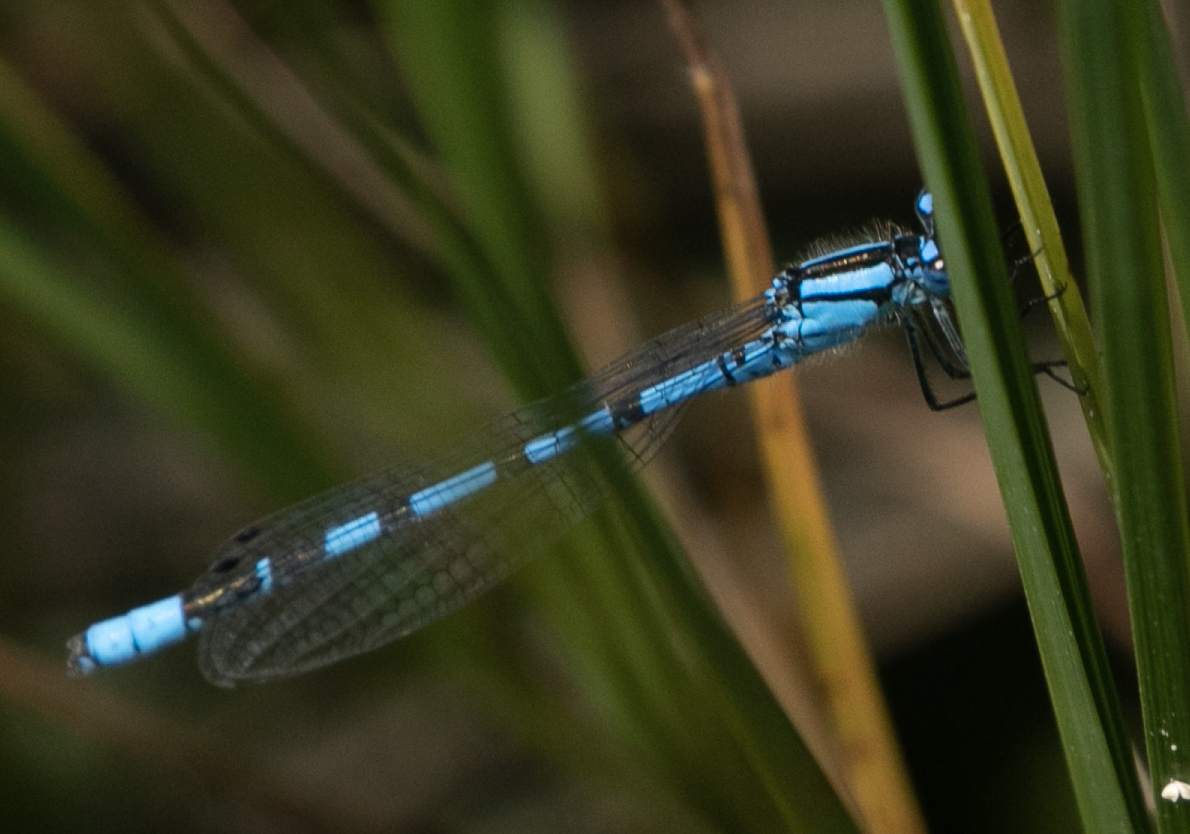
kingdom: Animalia
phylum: Arthropoda
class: Insecta
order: Odonata
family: Coenagrionidae
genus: Enallagma
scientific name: Enallagma cyathigerum
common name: Common blue damselfly
